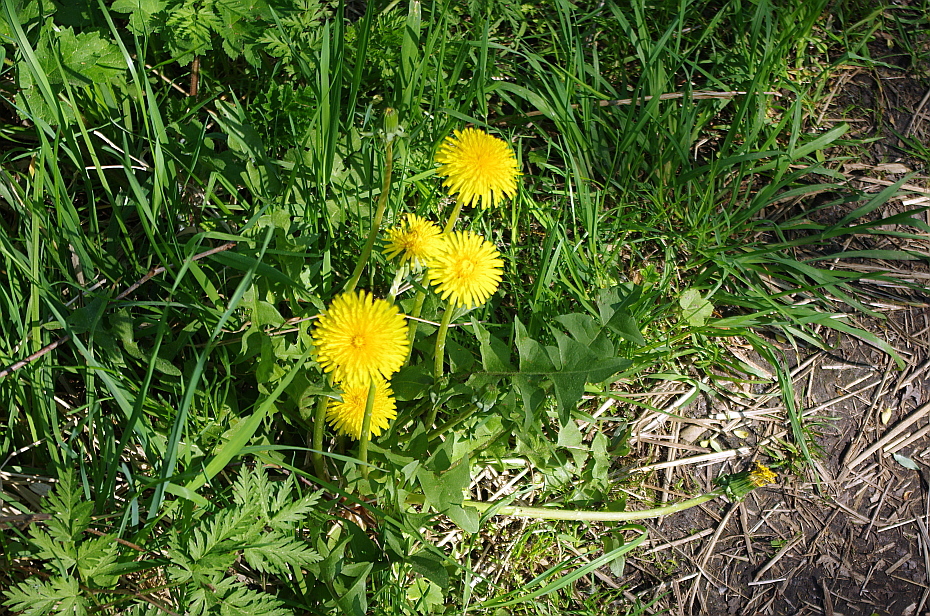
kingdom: Plantae
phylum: Tracheophyta
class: Magnoliopsida
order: Asterales
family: Asteraceae
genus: Taraxacum
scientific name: Taraxacum officinale
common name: Common dandelion
